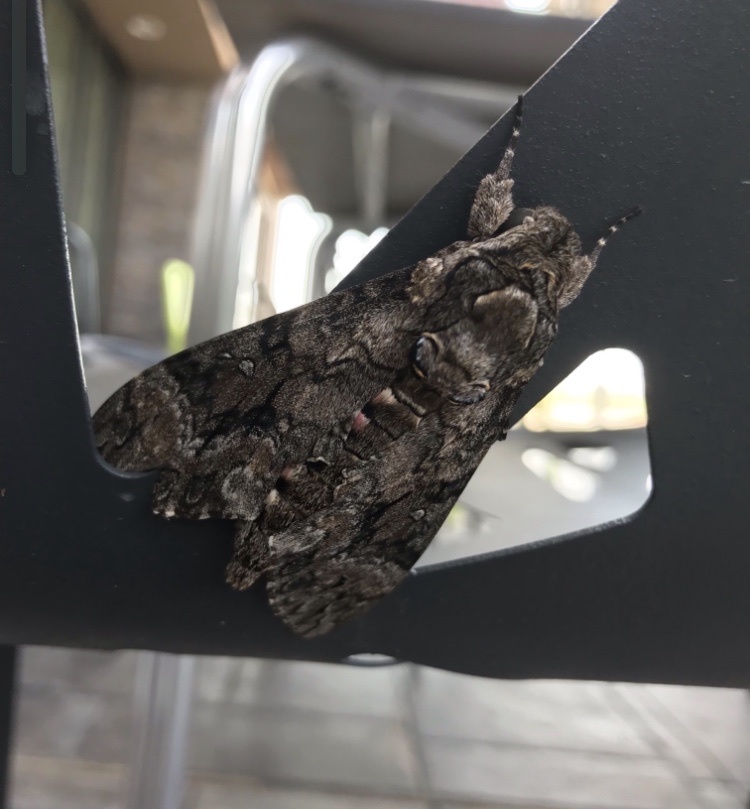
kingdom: Animalia
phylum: Arthropoda
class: Insecta
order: Lepidoptera
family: Sphingidae
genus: Agrius
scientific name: Agrius cingulata
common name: Pink-spotted hawkmoth
